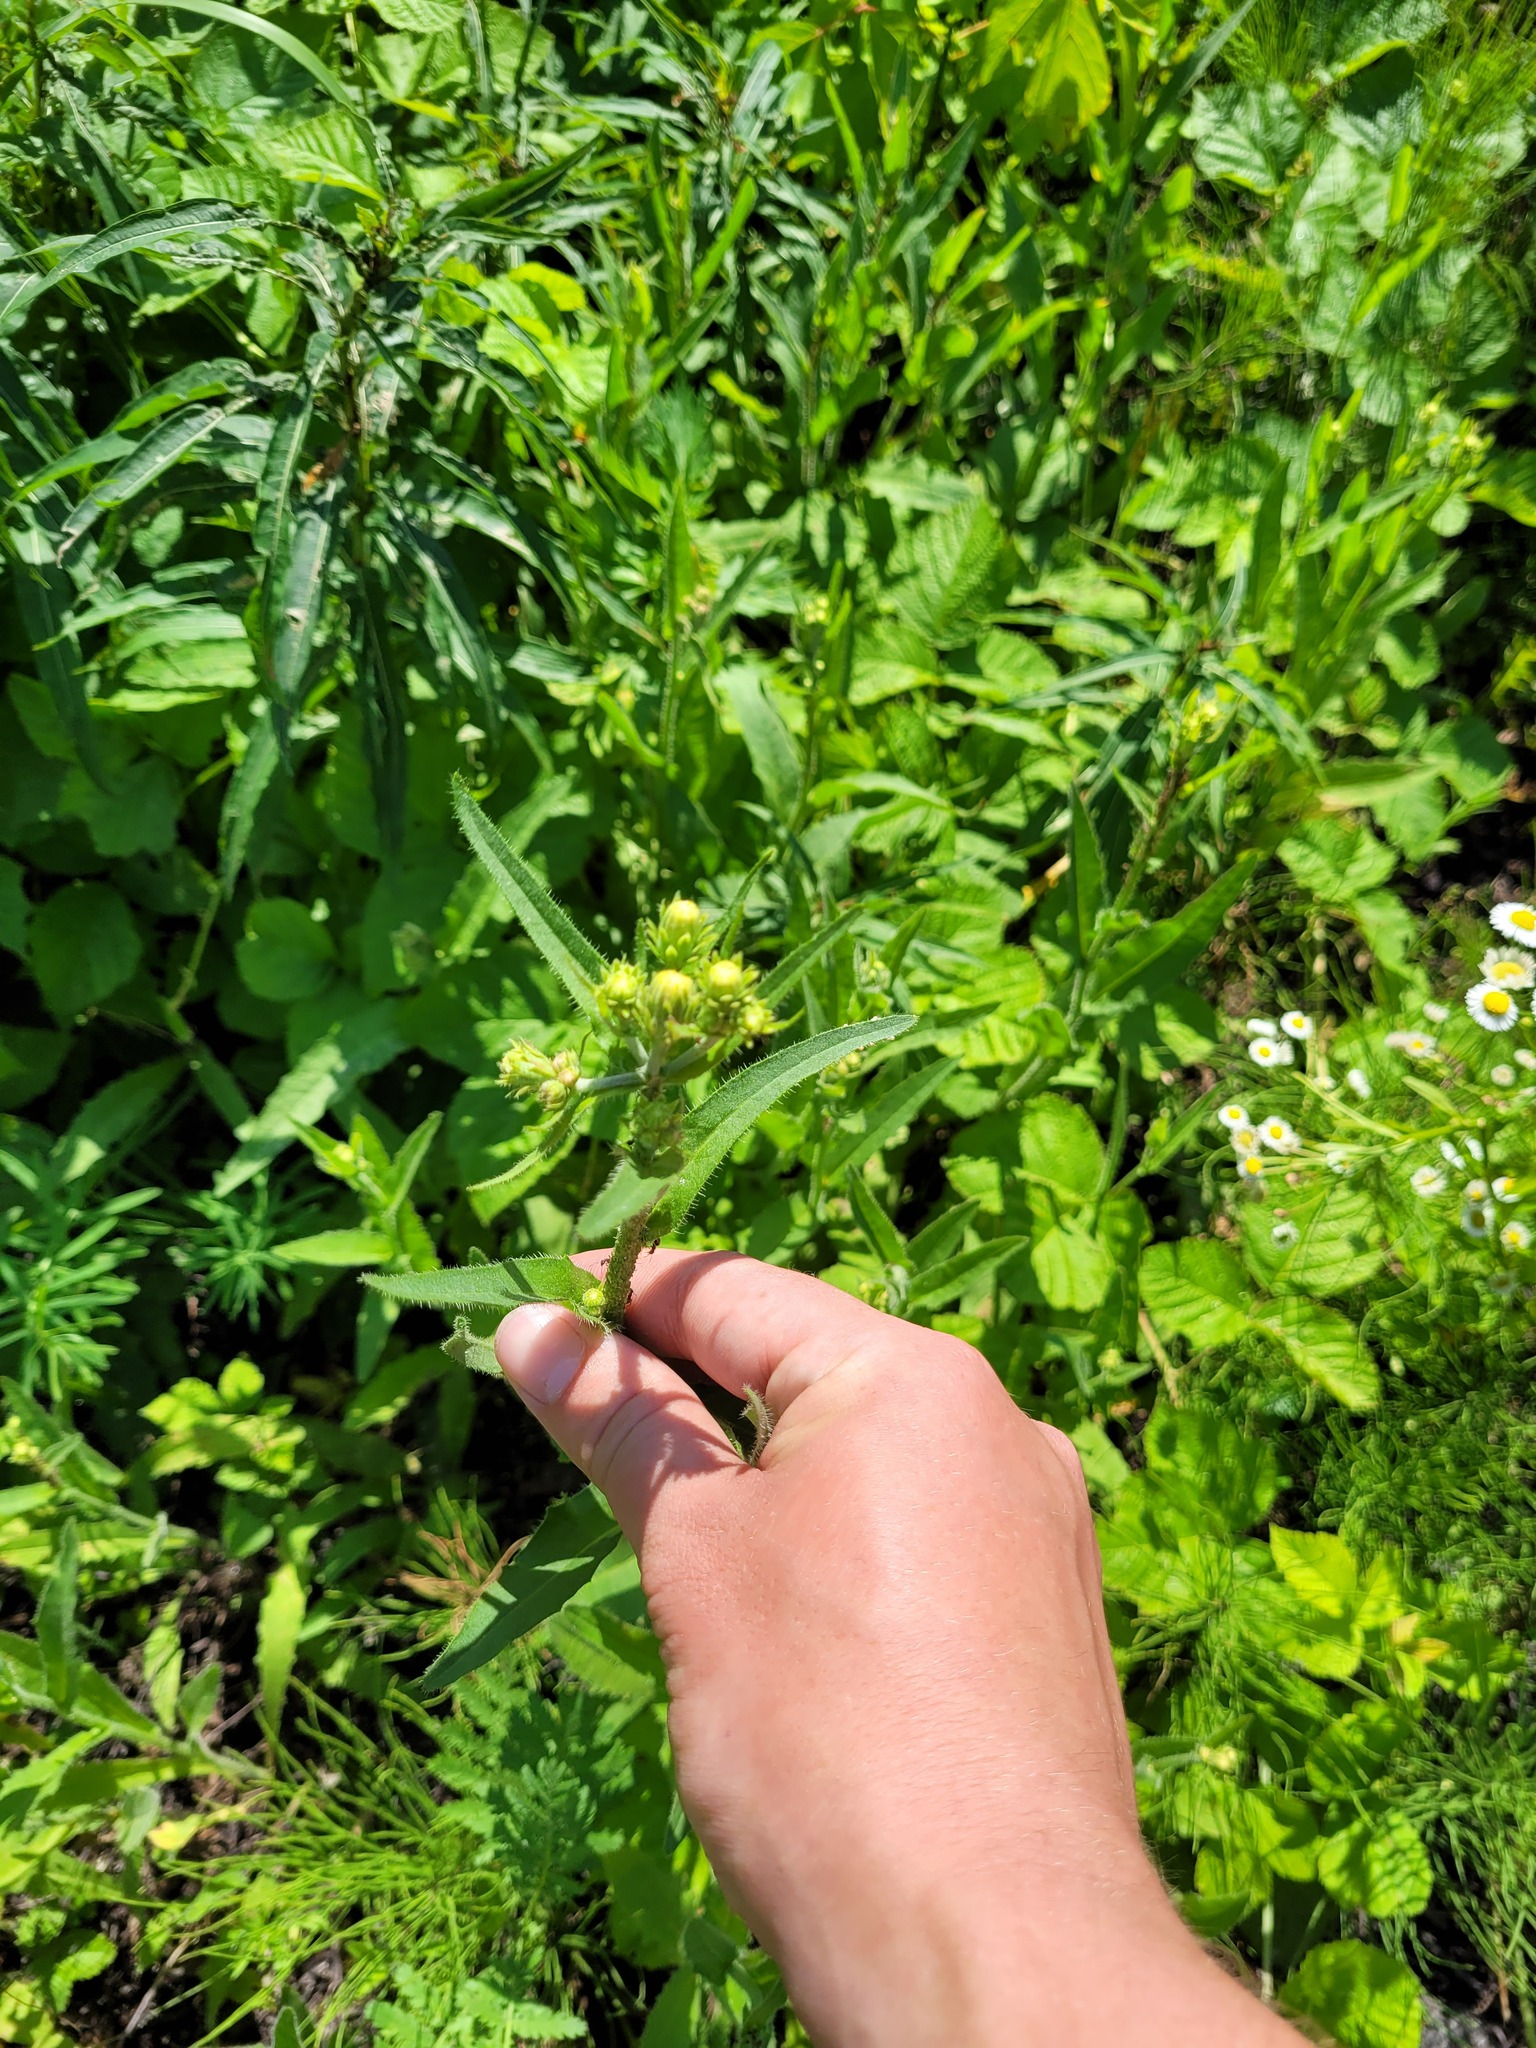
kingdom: Plantae
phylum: Tracheophyta
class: Magnoliopsida
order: Asterales
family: Asteraceae
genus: Picris
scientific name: Picris hieracioides
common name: Hawkweed oxtongue
